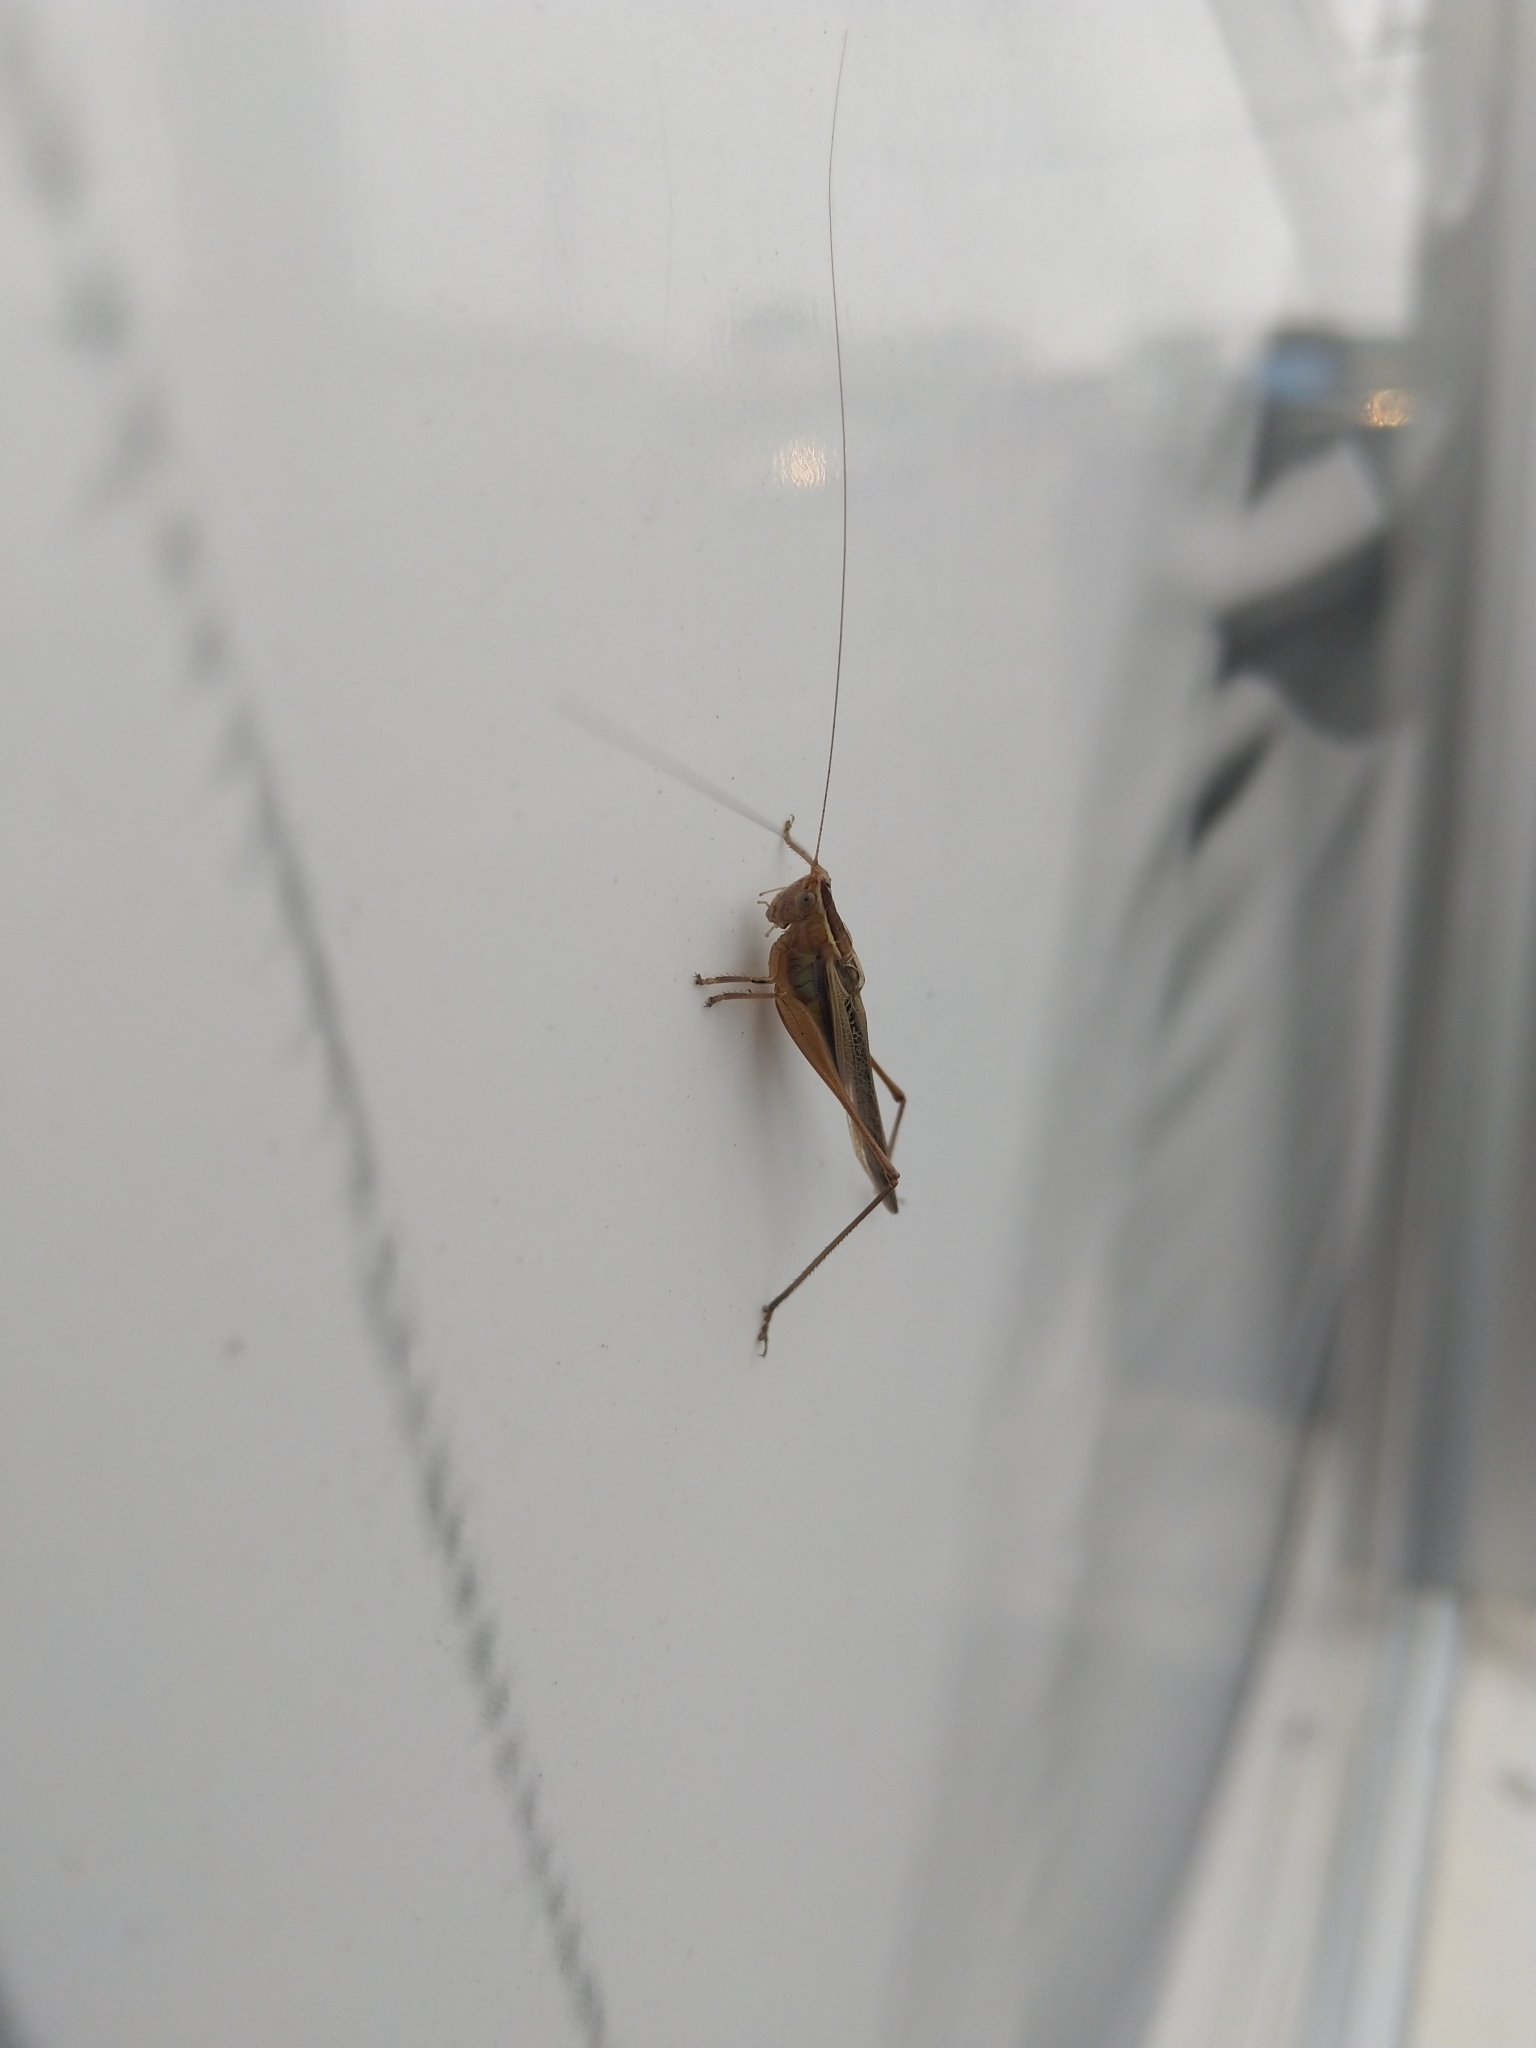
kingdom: Animalia
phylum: Arthropoda
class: Insecta
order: Orthoptera
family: Tettigoniidae
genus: Conocephalus
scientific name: Conocephalus albescens
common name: Whitish meadow katydid
